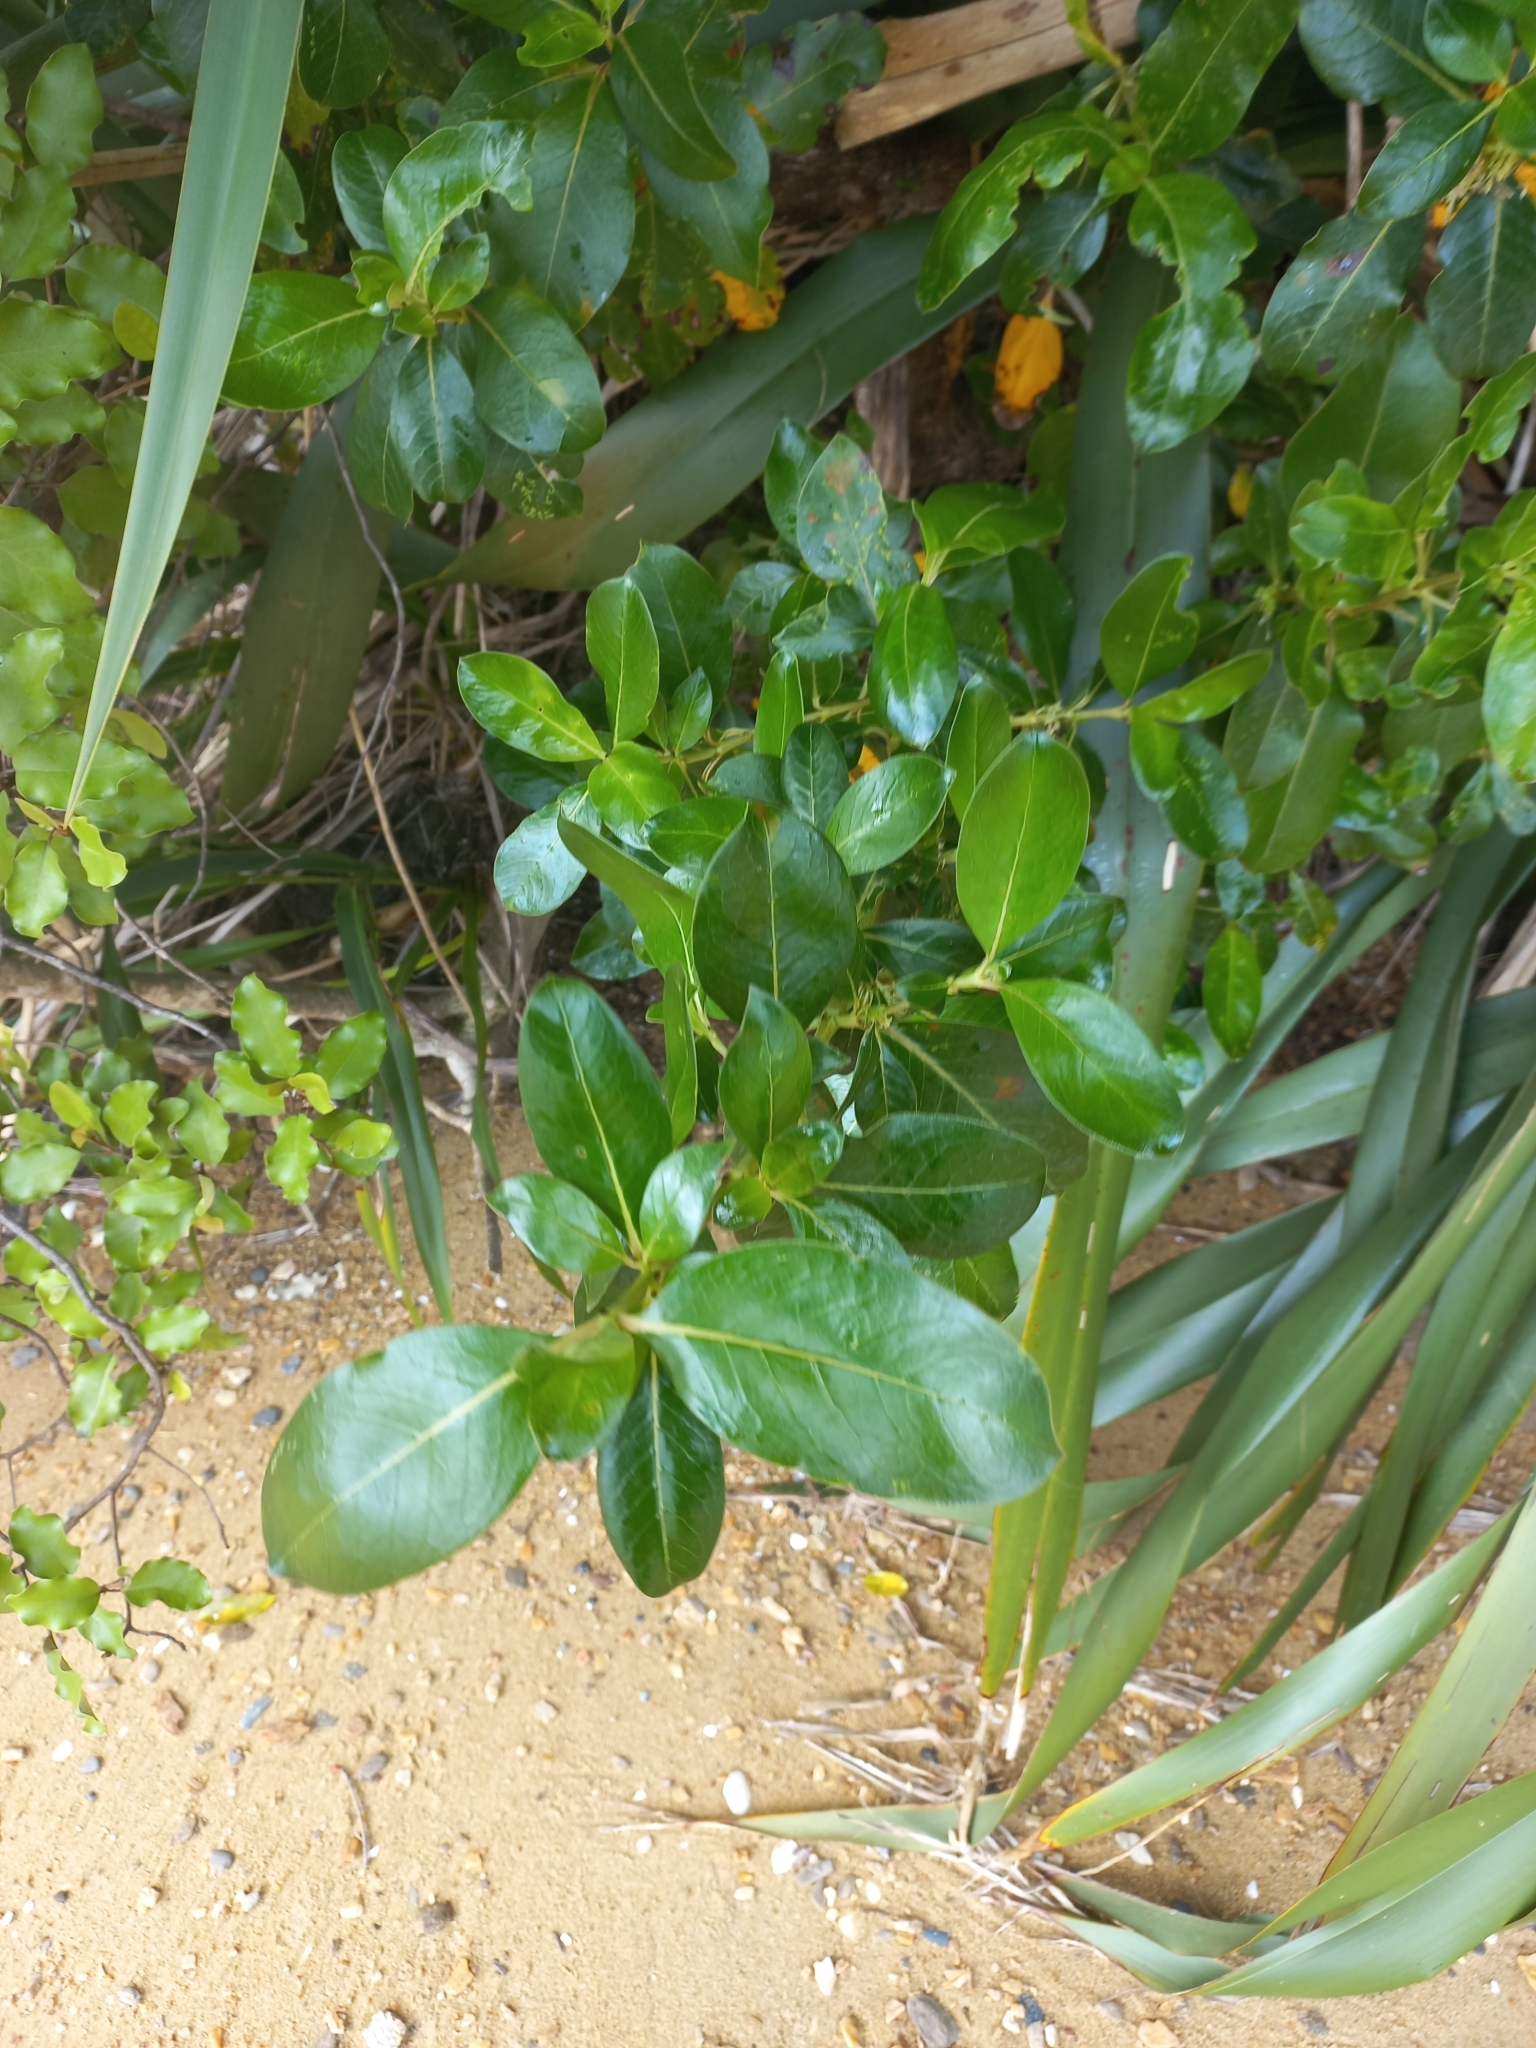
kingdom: Plantae
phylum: Tracheophyta
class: Magnoliopsida
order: Gentianales
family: Rubiaceae
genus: Coprosma
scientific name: Coprosma robusta
